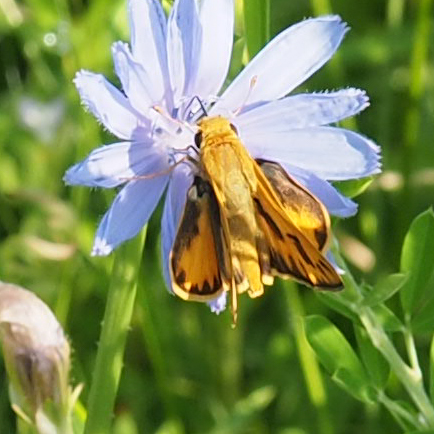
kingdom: Animalia
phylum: Arthropoda
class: Insecta
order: Lepidoptera
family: Hesperiidae
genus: Hylephila
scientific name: Hylephila phyleus
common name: Fiery skipper
